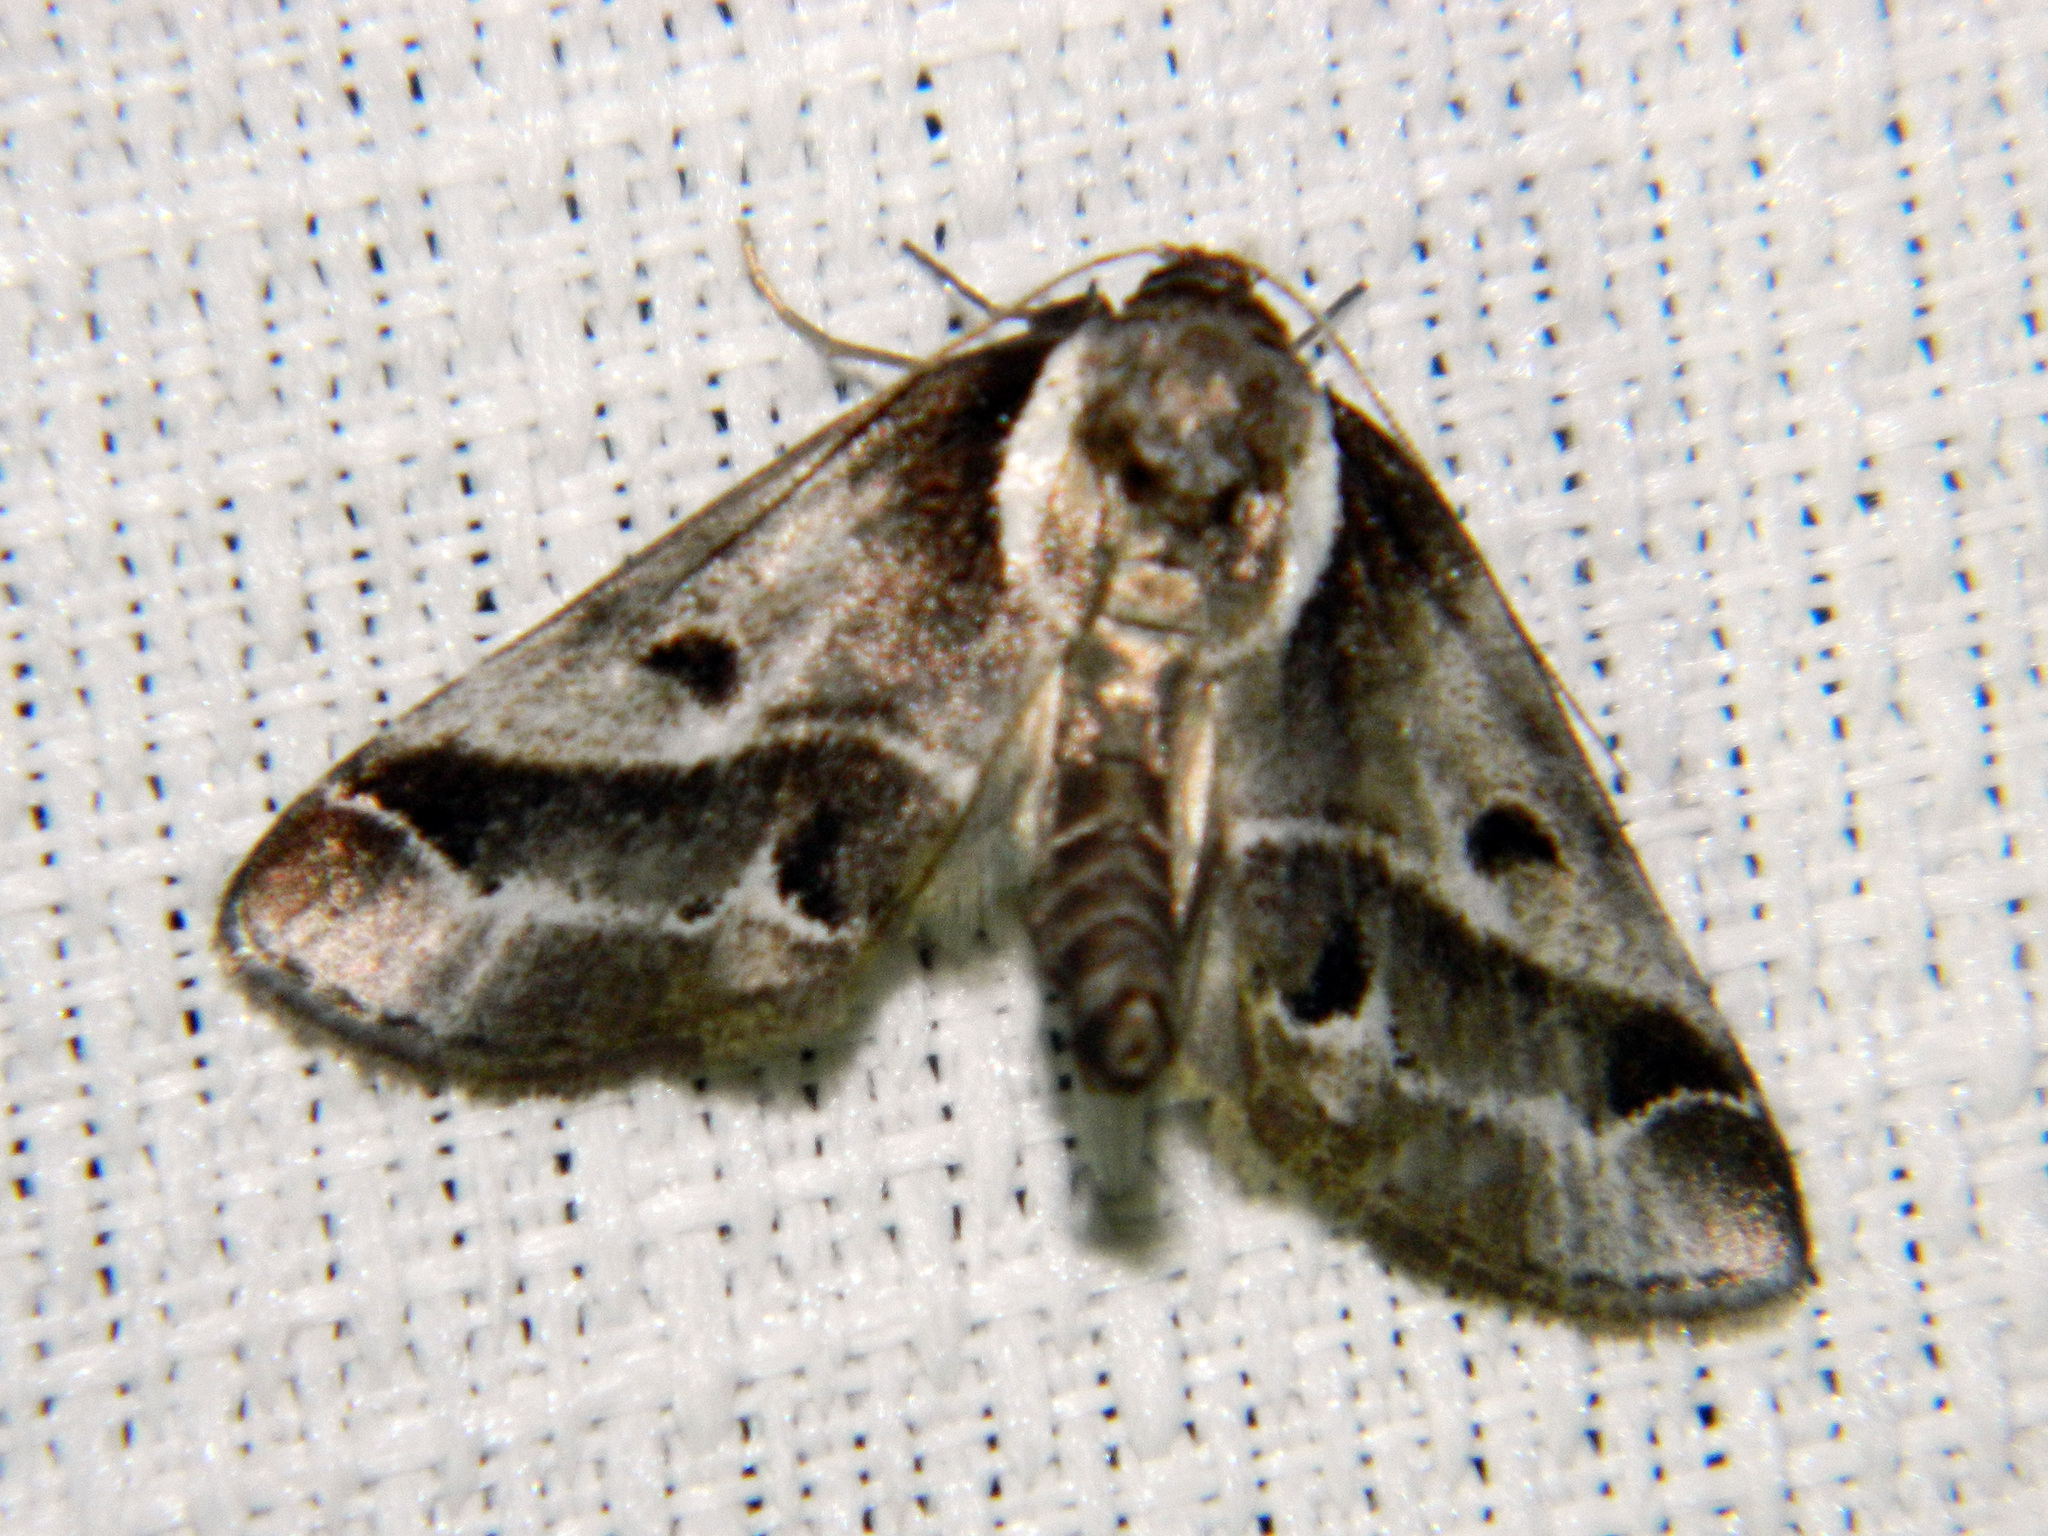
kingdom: Animalia
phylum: Arthropoda
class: Insecta
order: Lepidoptera
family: Nolidae
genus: Baileya
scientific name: Baileya doubledayi
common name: Doubleday's baileya moth
